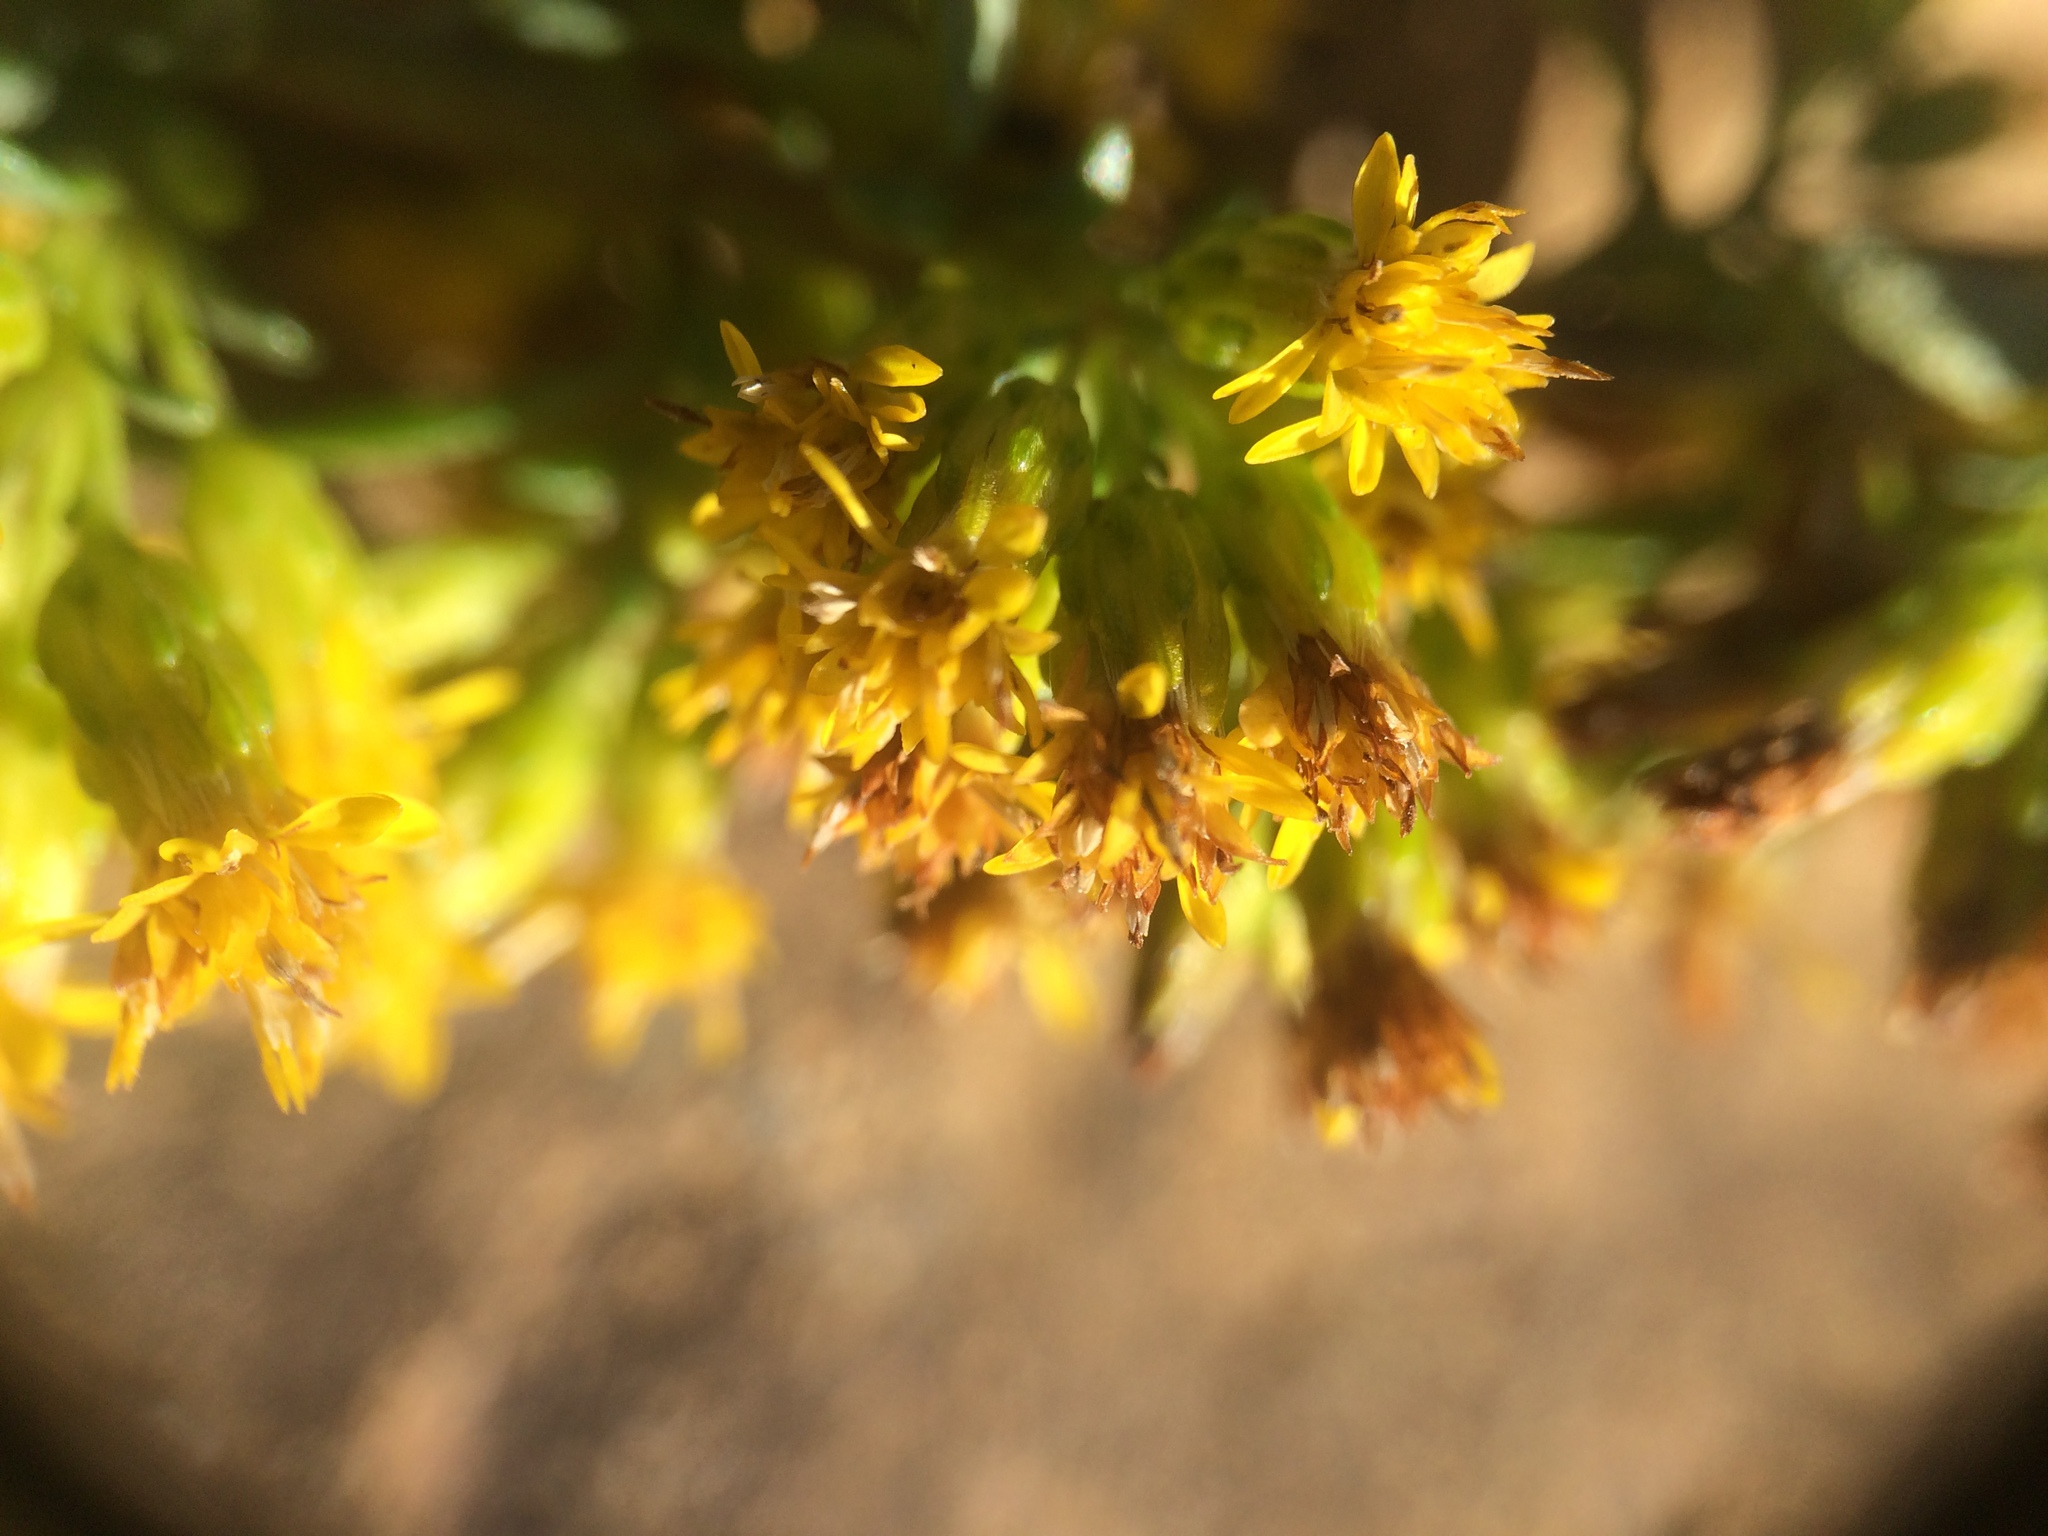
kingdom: Plantae
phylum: Tracheophyta
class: Magnoliopsida
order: Asterales
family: Asteraceae
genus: Solidago
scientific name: Solidago randii
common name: Rand's goldenrod
